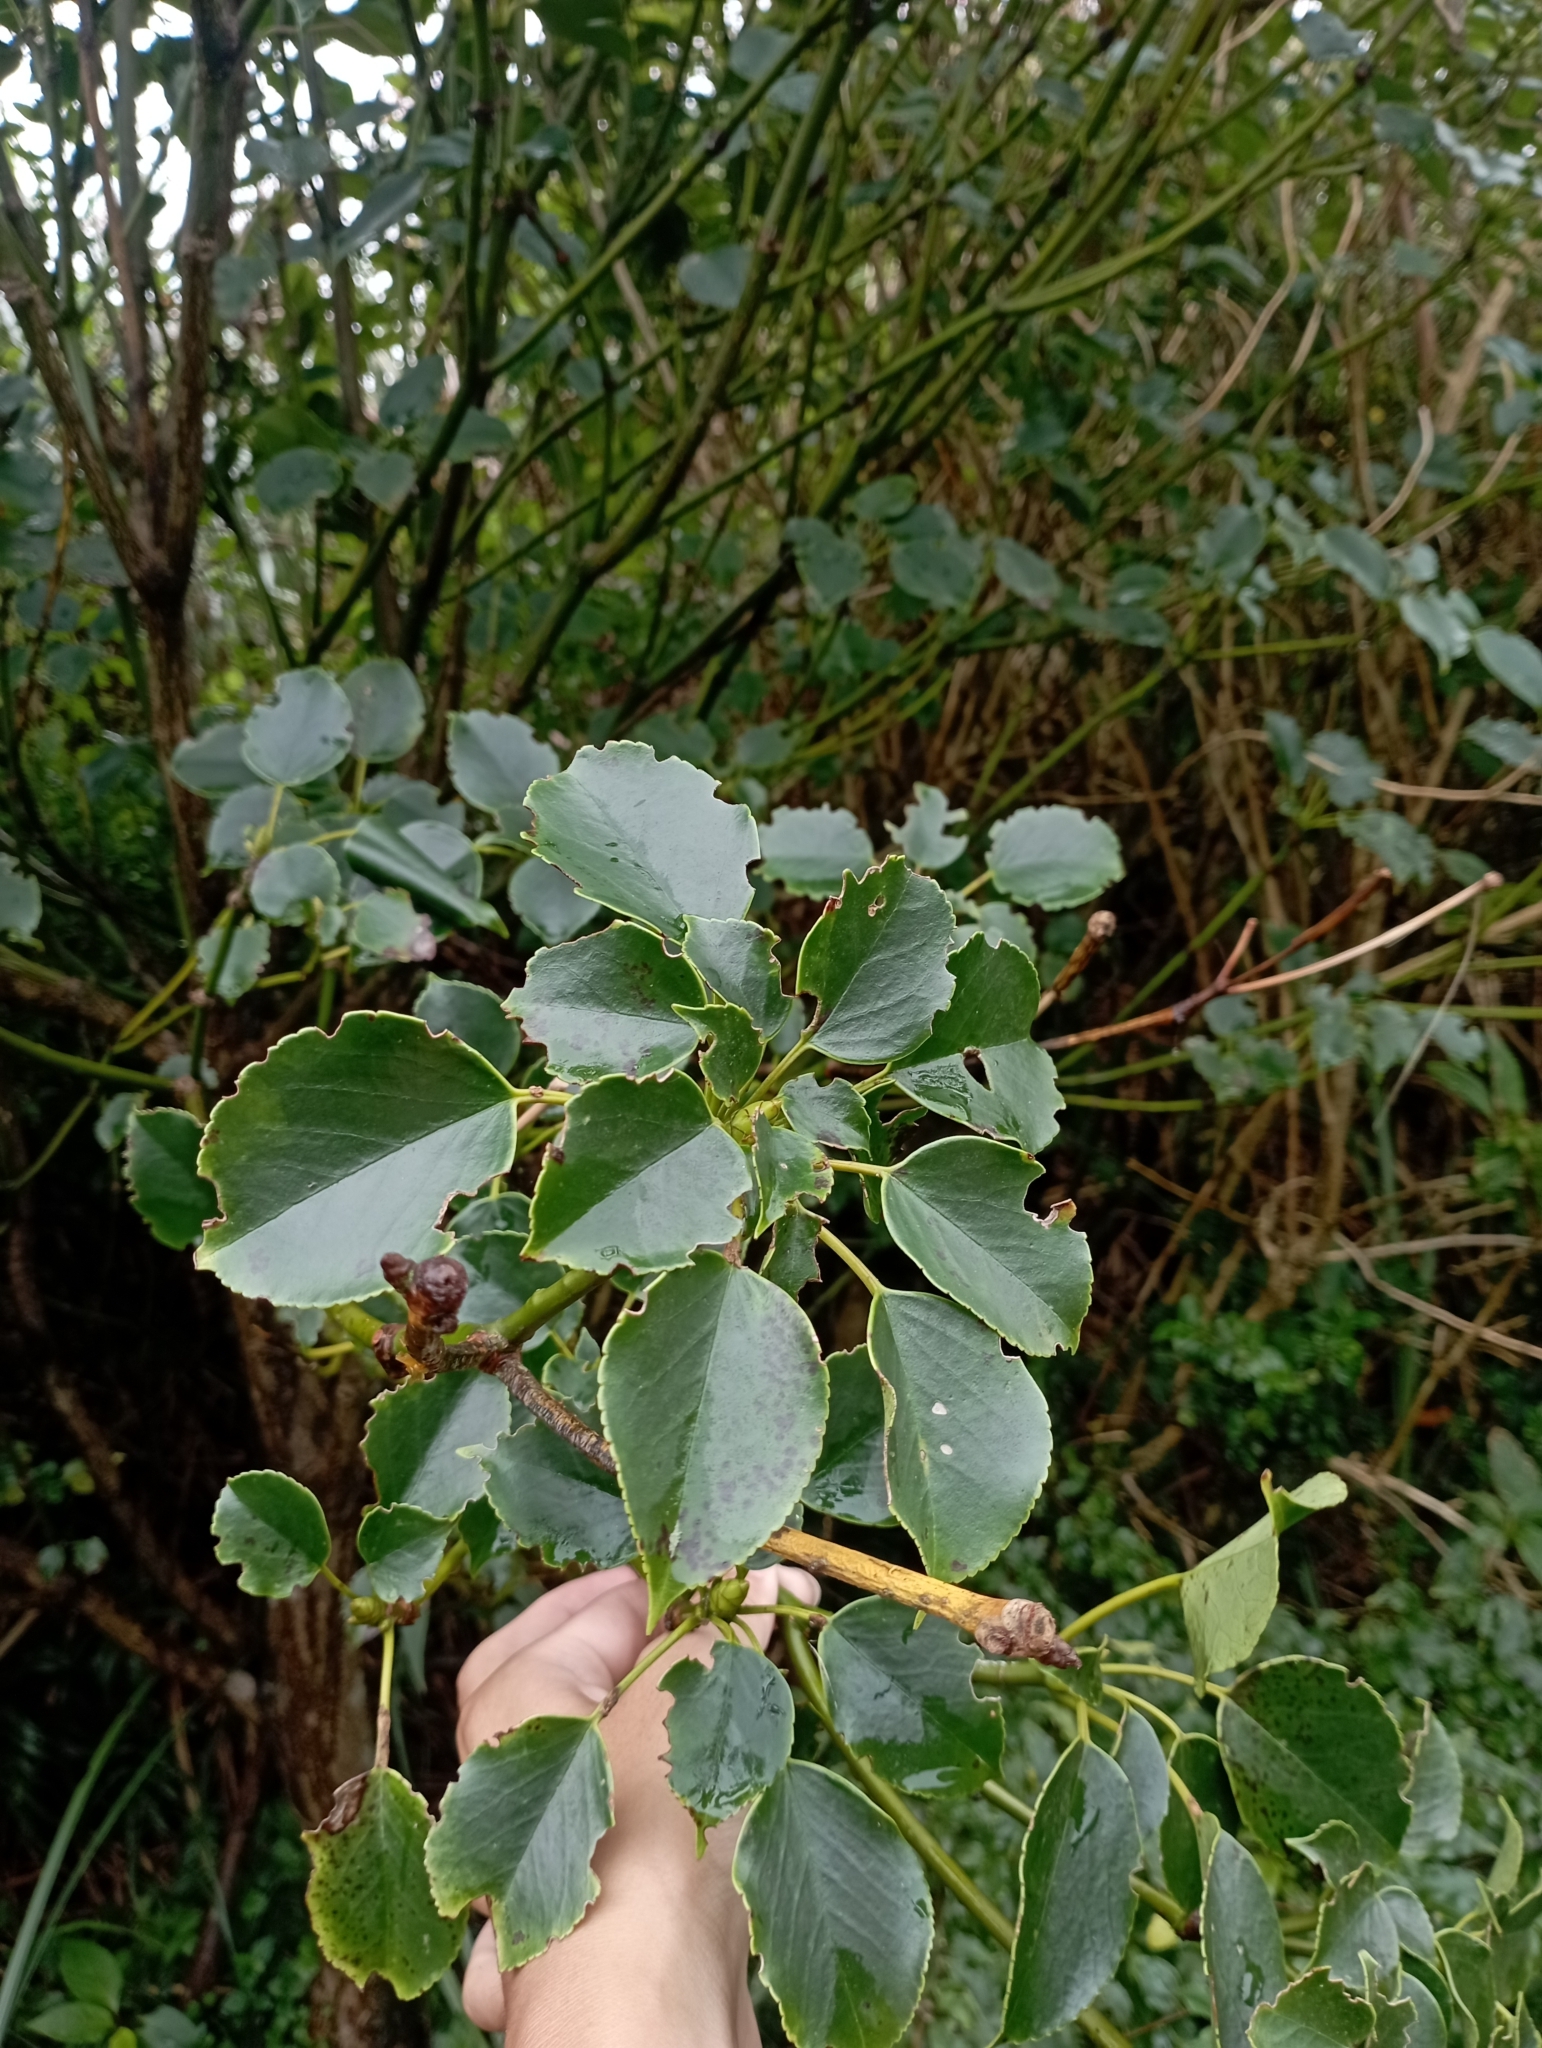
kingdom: Plantae
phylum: Tracheophyta
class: Magnoliopsida
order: Trochodendrales
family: Trochodendraceae
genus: Trochodendron
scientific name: Trochodendron aralioides
